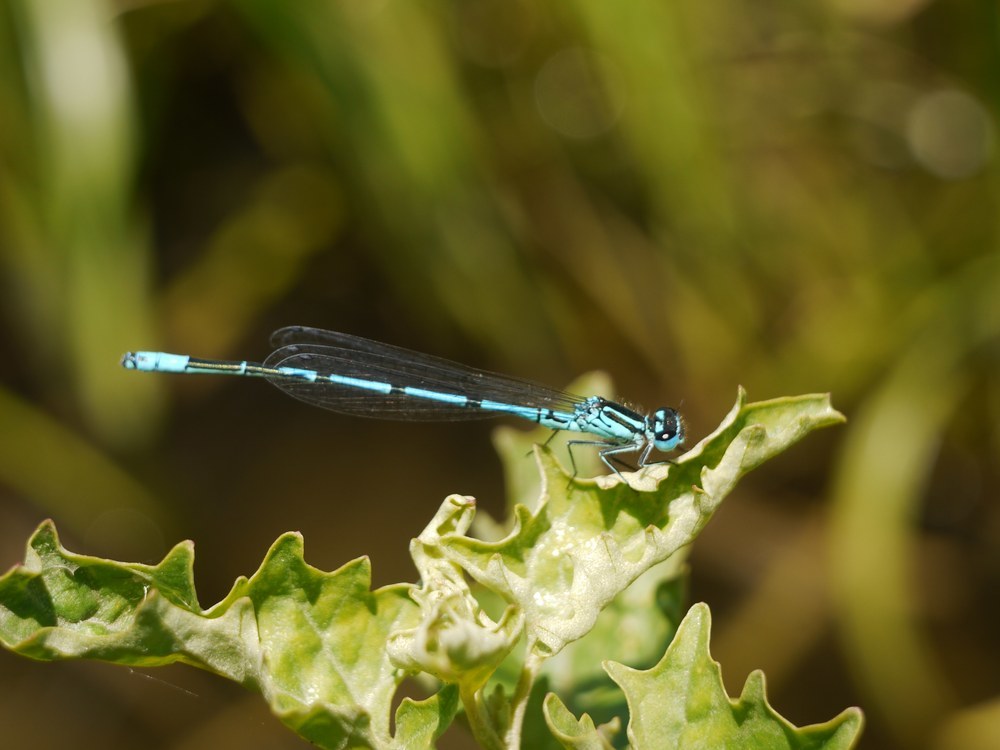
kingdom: Animalia
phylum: Arthropoda
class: Insecta
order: Odonata
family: Coenagrionidae
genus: Coenagrion
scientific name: Coenagrion puella
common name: Azure damselfly
